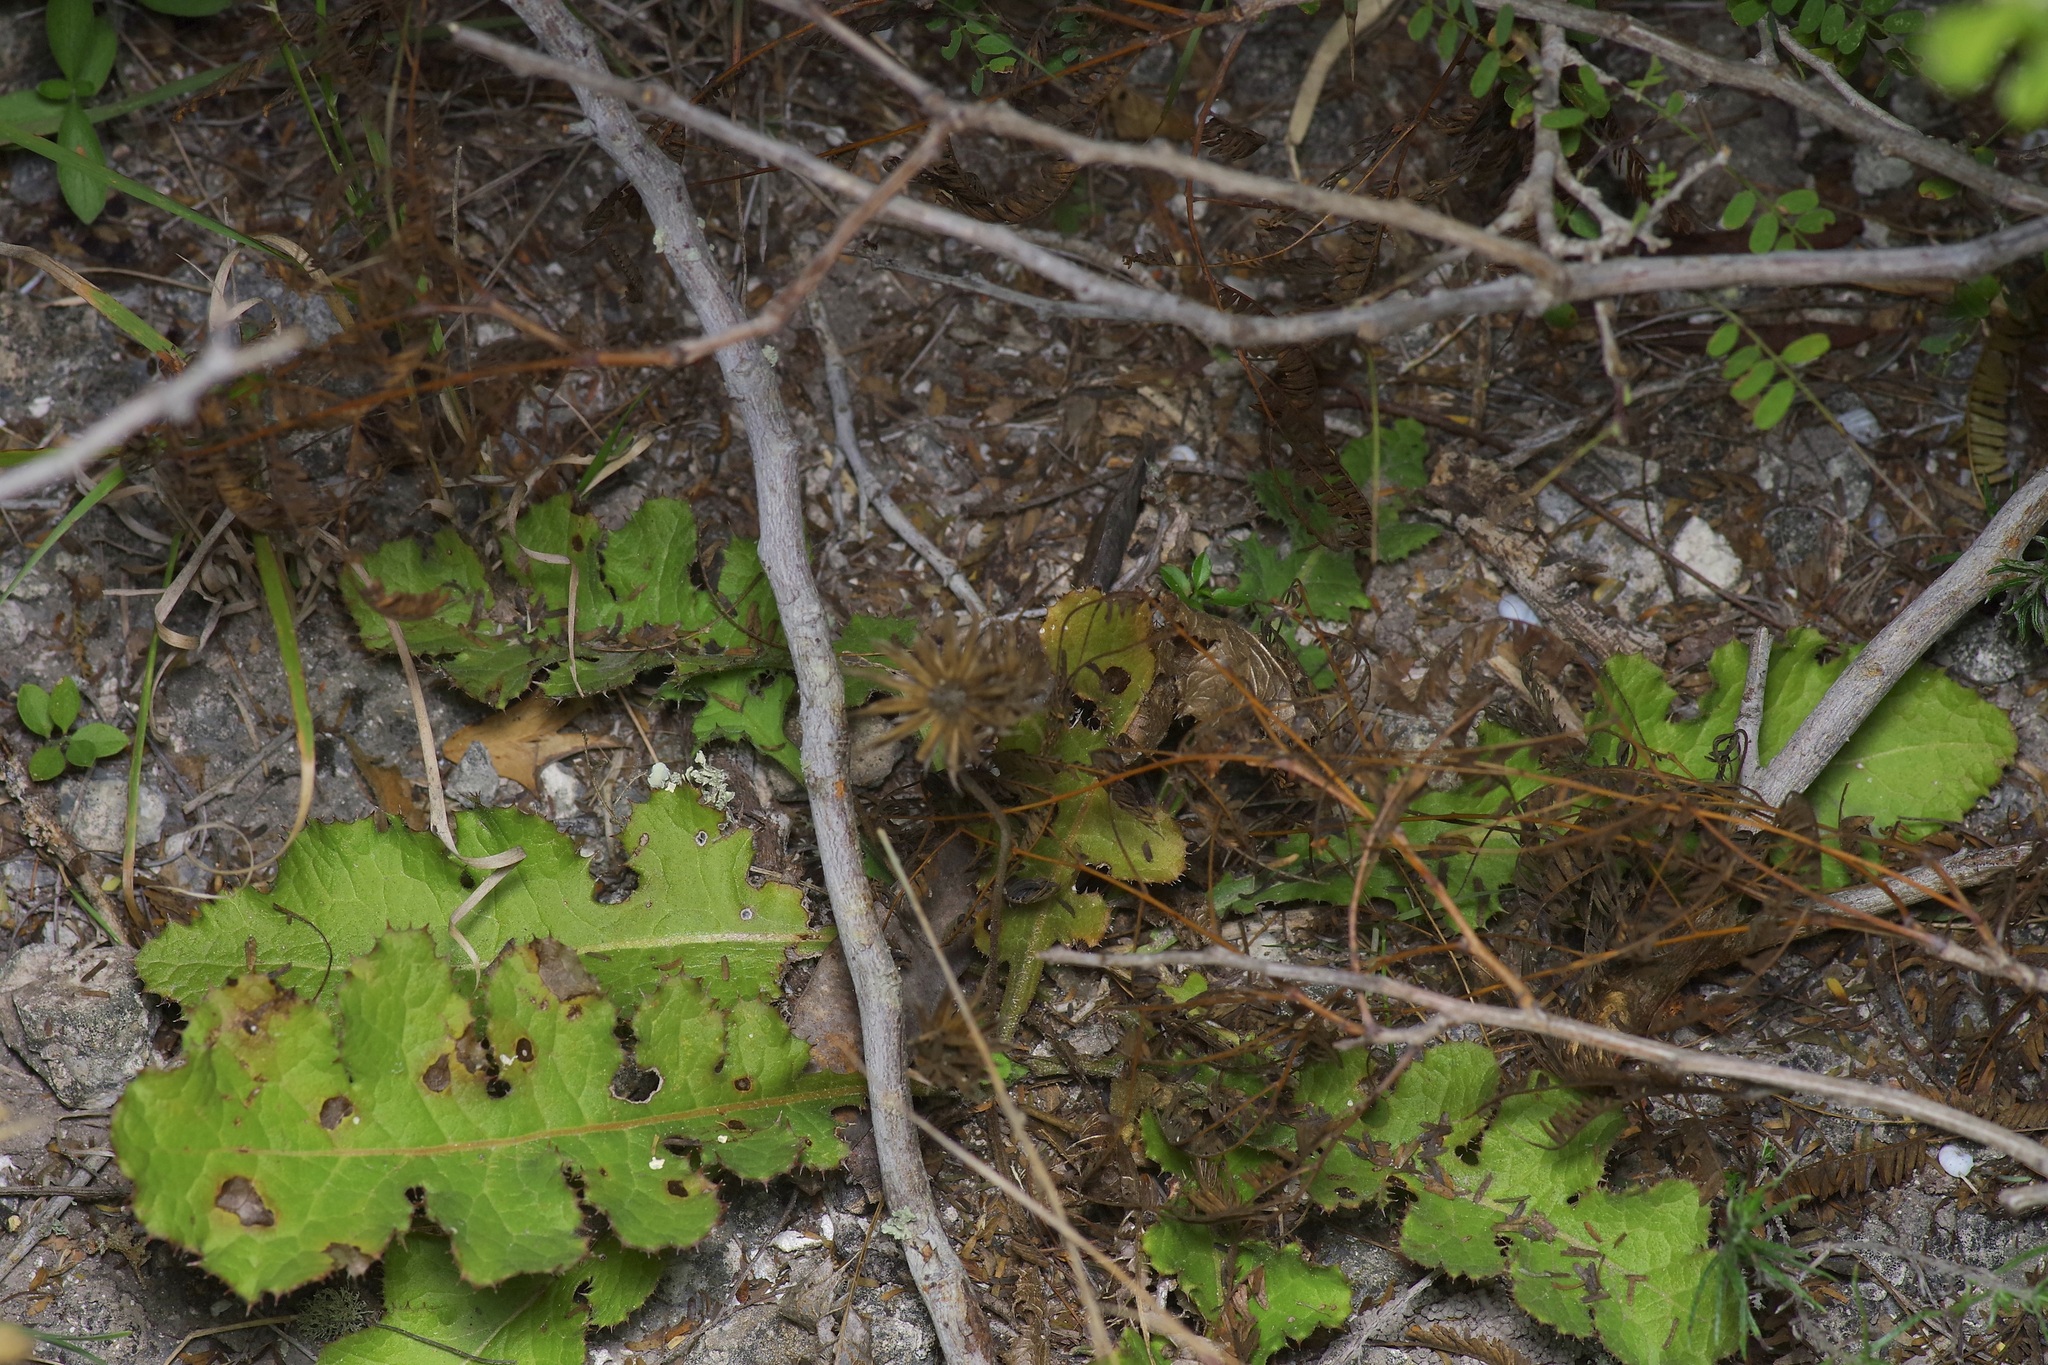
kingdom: Plantae
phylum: Tracheophyta
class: Magnoliopsida
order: Asterales
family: Asteraceae
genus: Acourtia
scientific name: Acourtia runcinata
